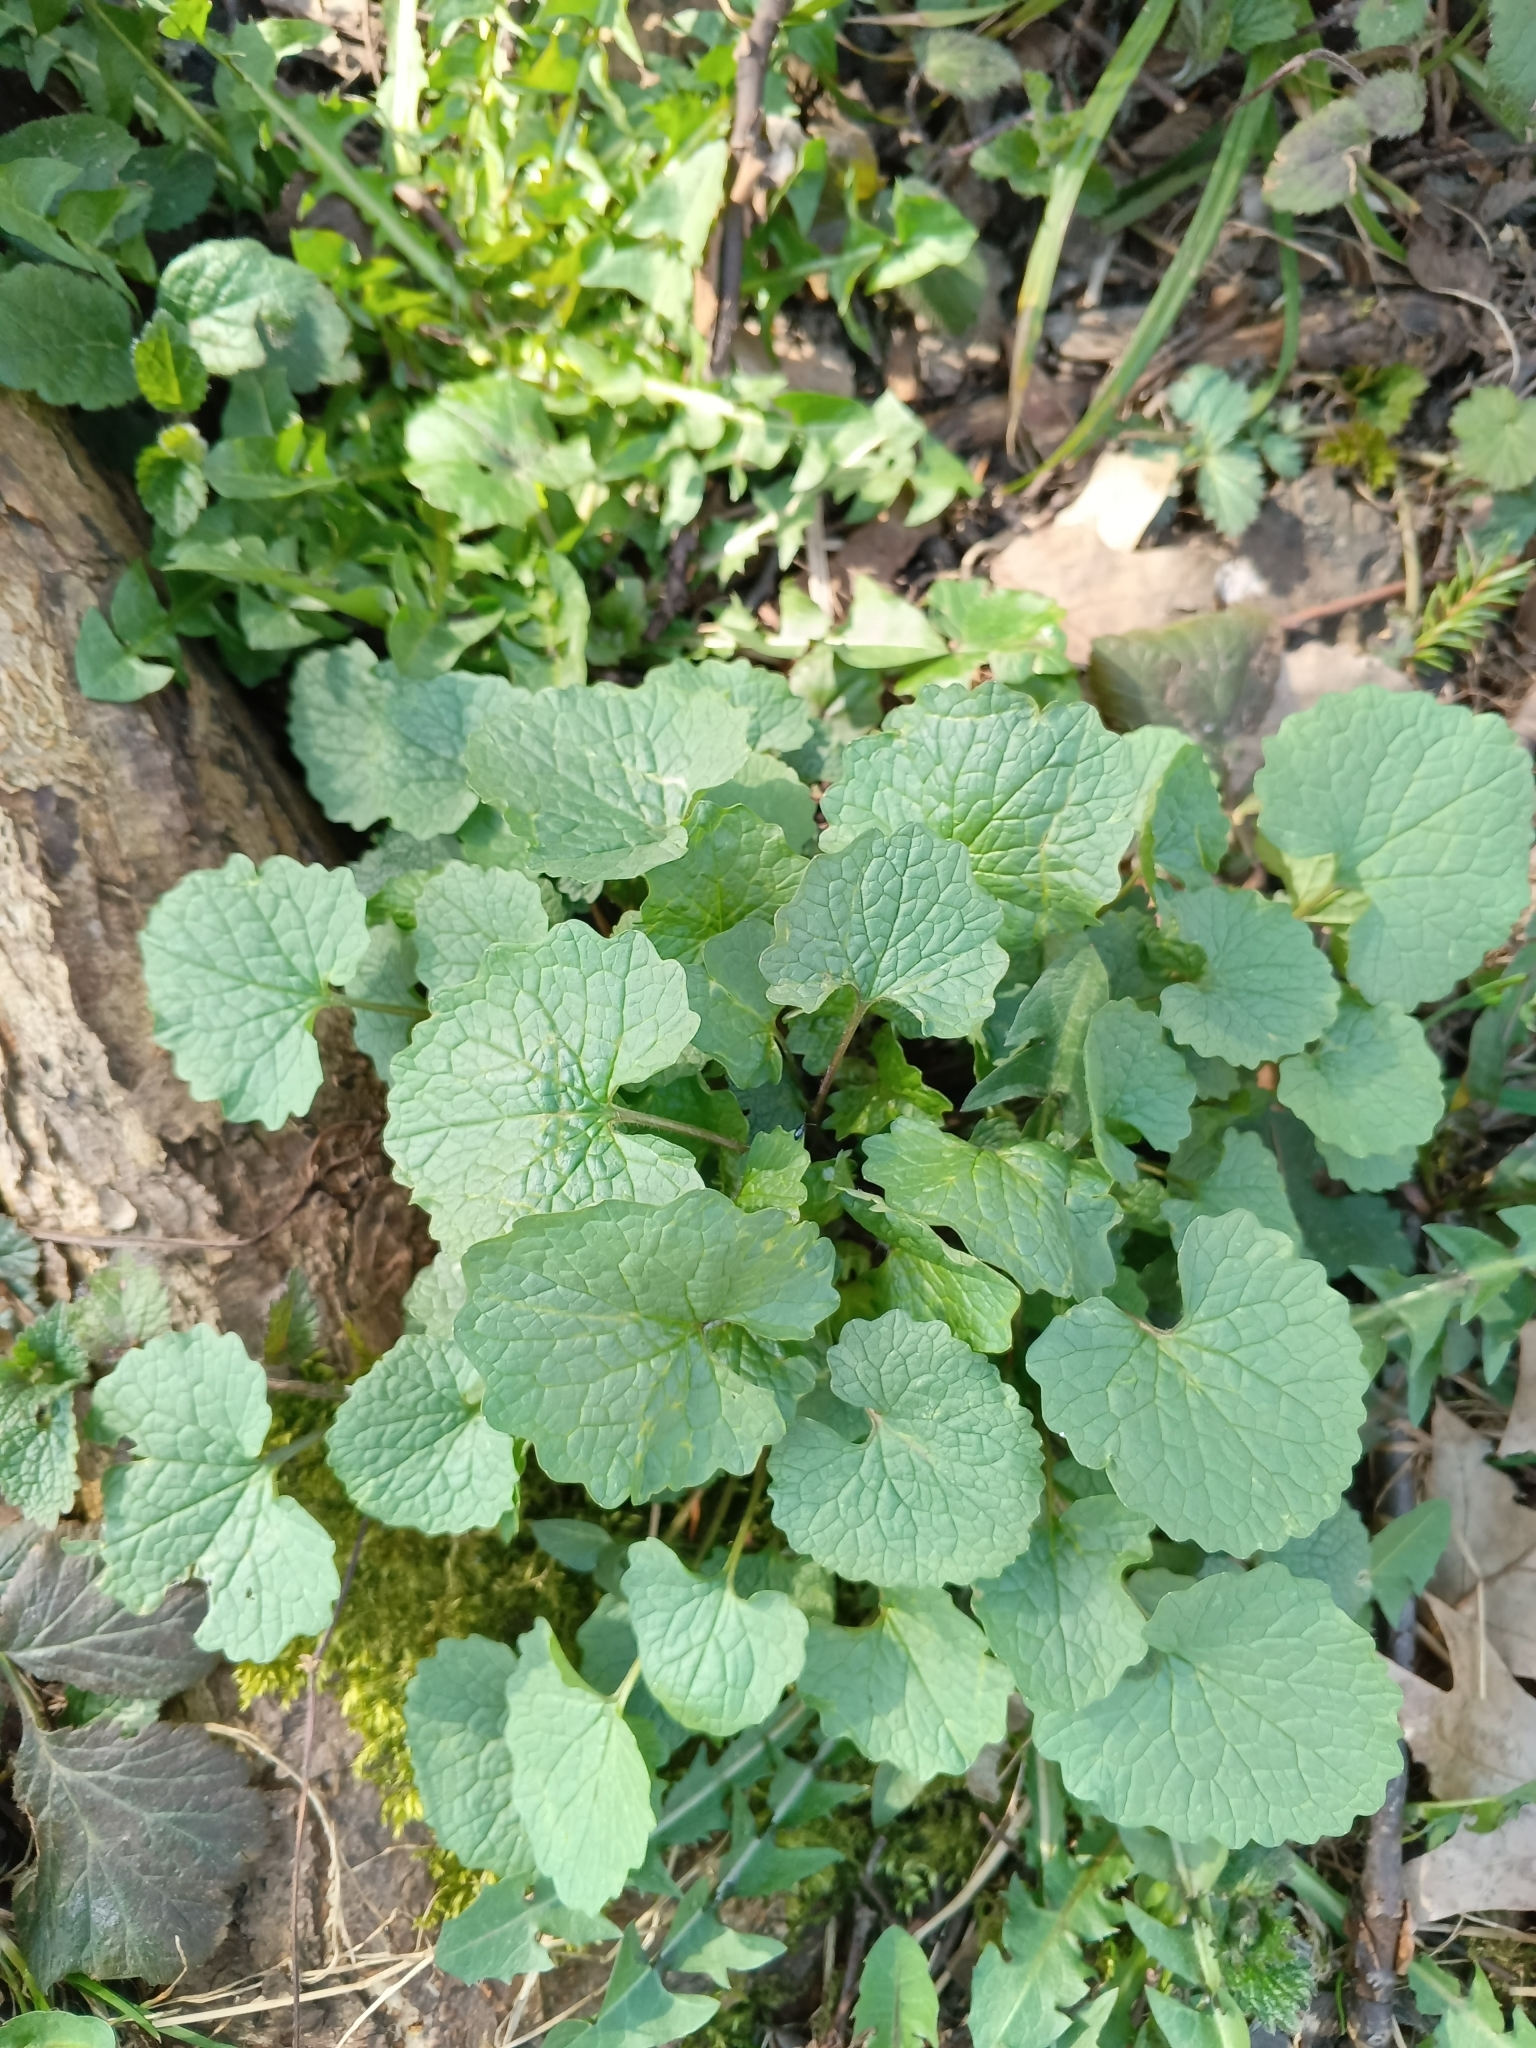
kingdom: Plantae
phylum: Tracheophyta
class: Magnoliopsida
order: Brassicales
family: Brassicaceae
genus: Alliaria
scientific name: Alliaria petiolata
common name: Garlic mustard
